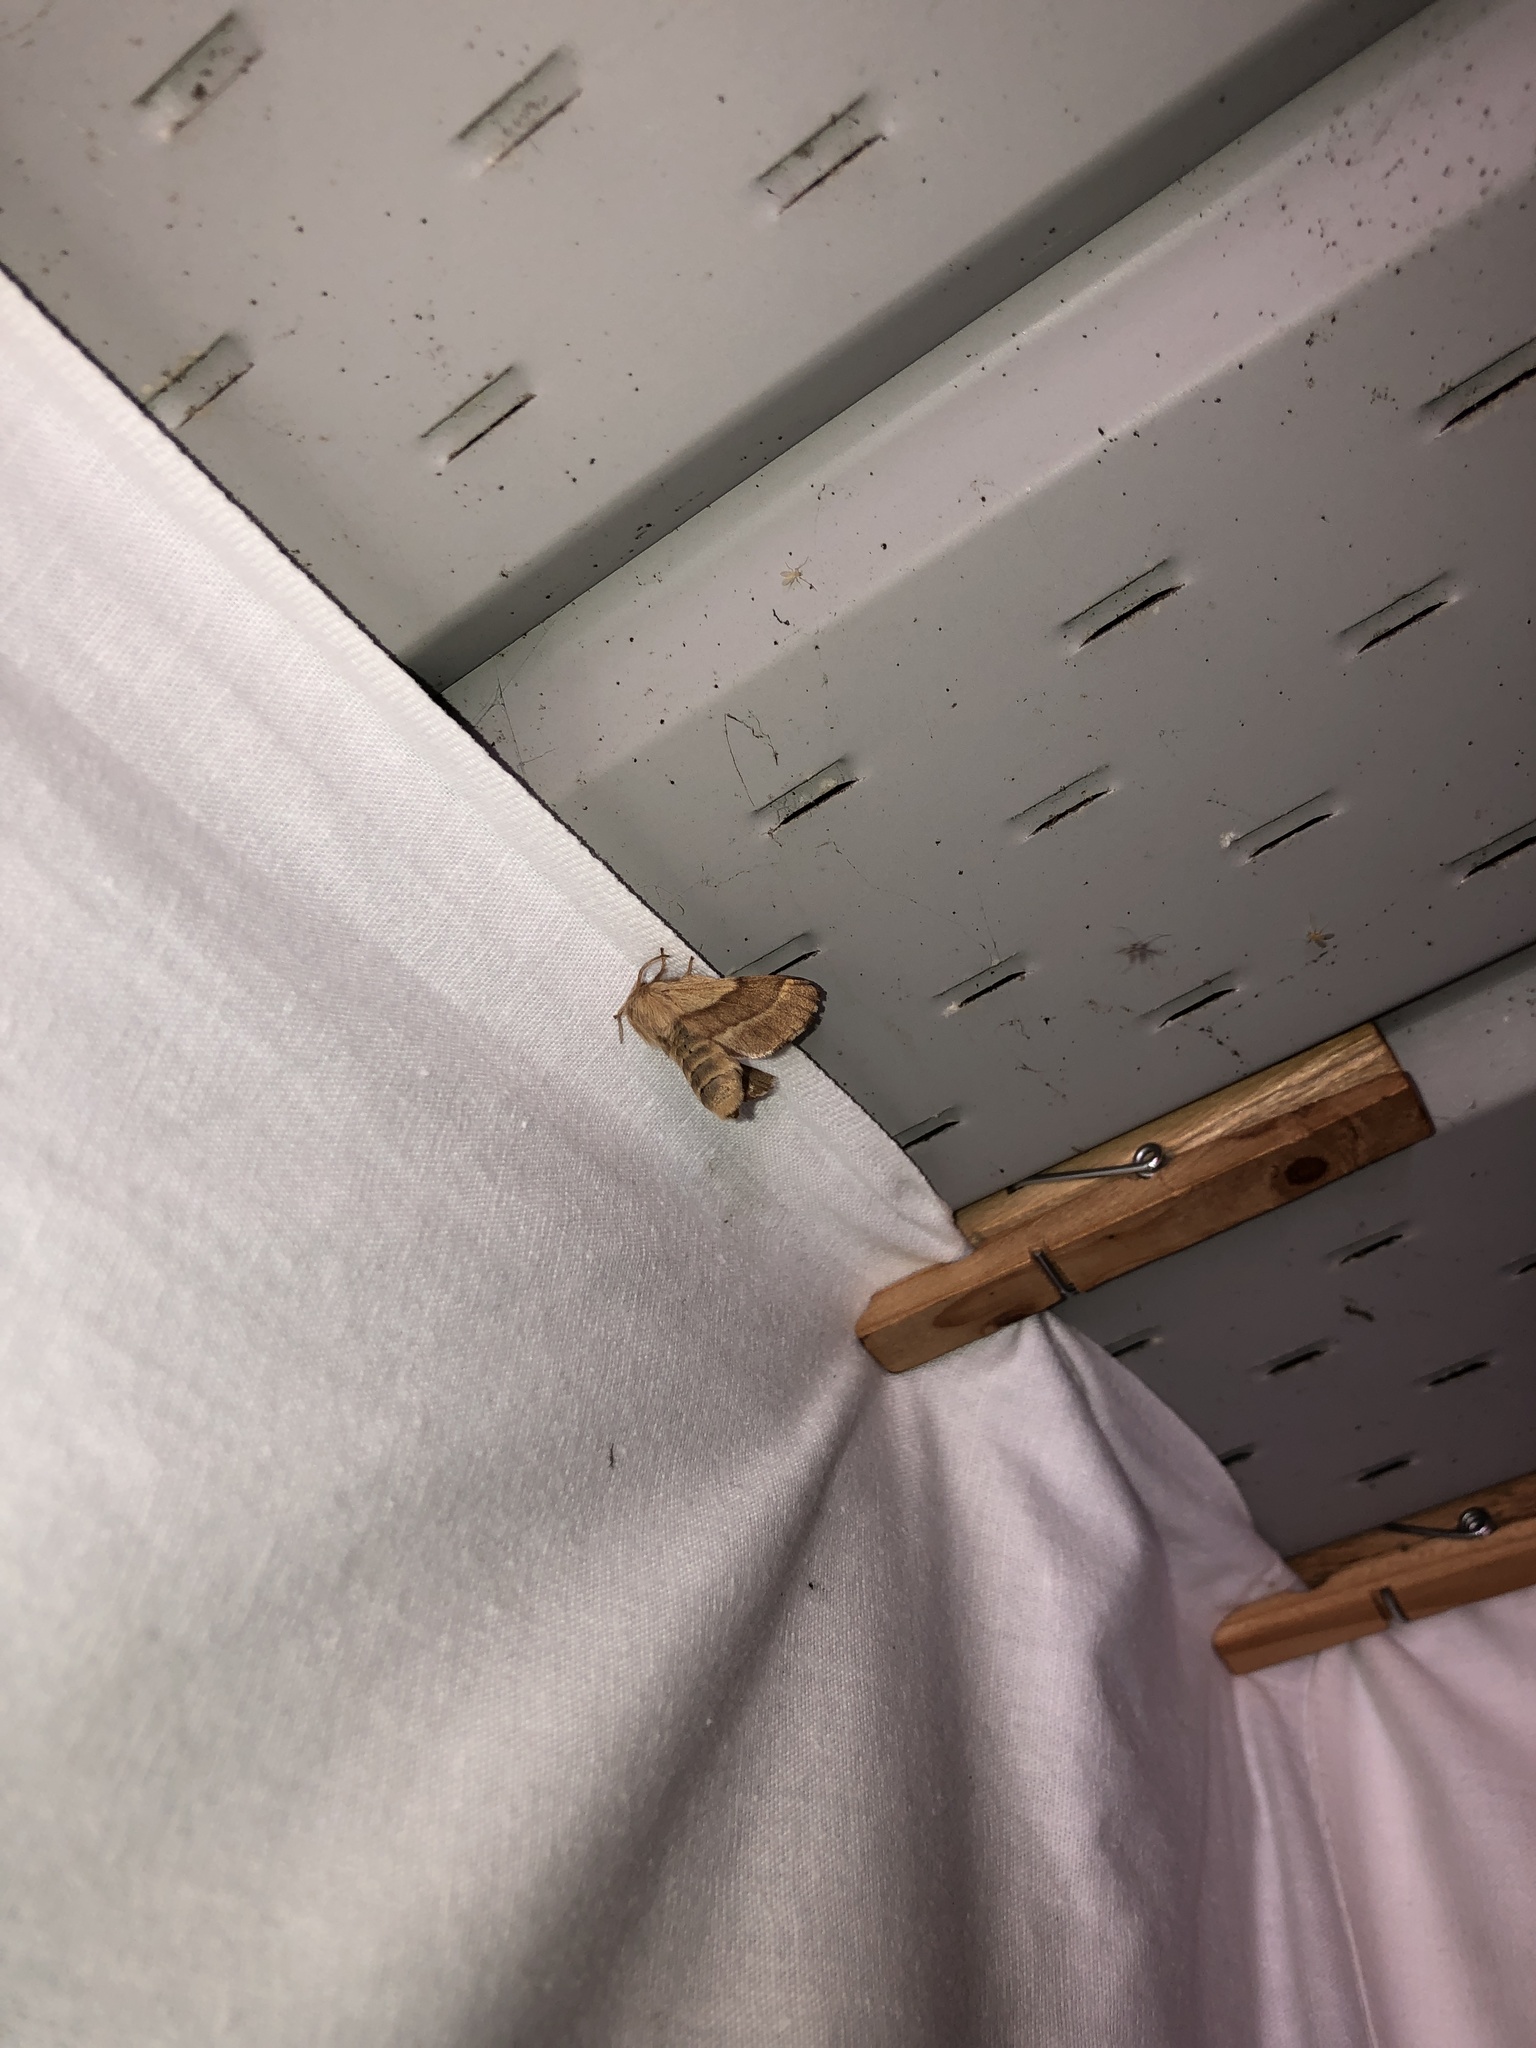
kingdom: Animalia
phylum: Arthropoda
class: Insecta
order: Lepidoptera
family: Lasiocampidae
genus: Malacosoma
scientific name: Malacosoma disstria
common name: Forest tent caterpillar
